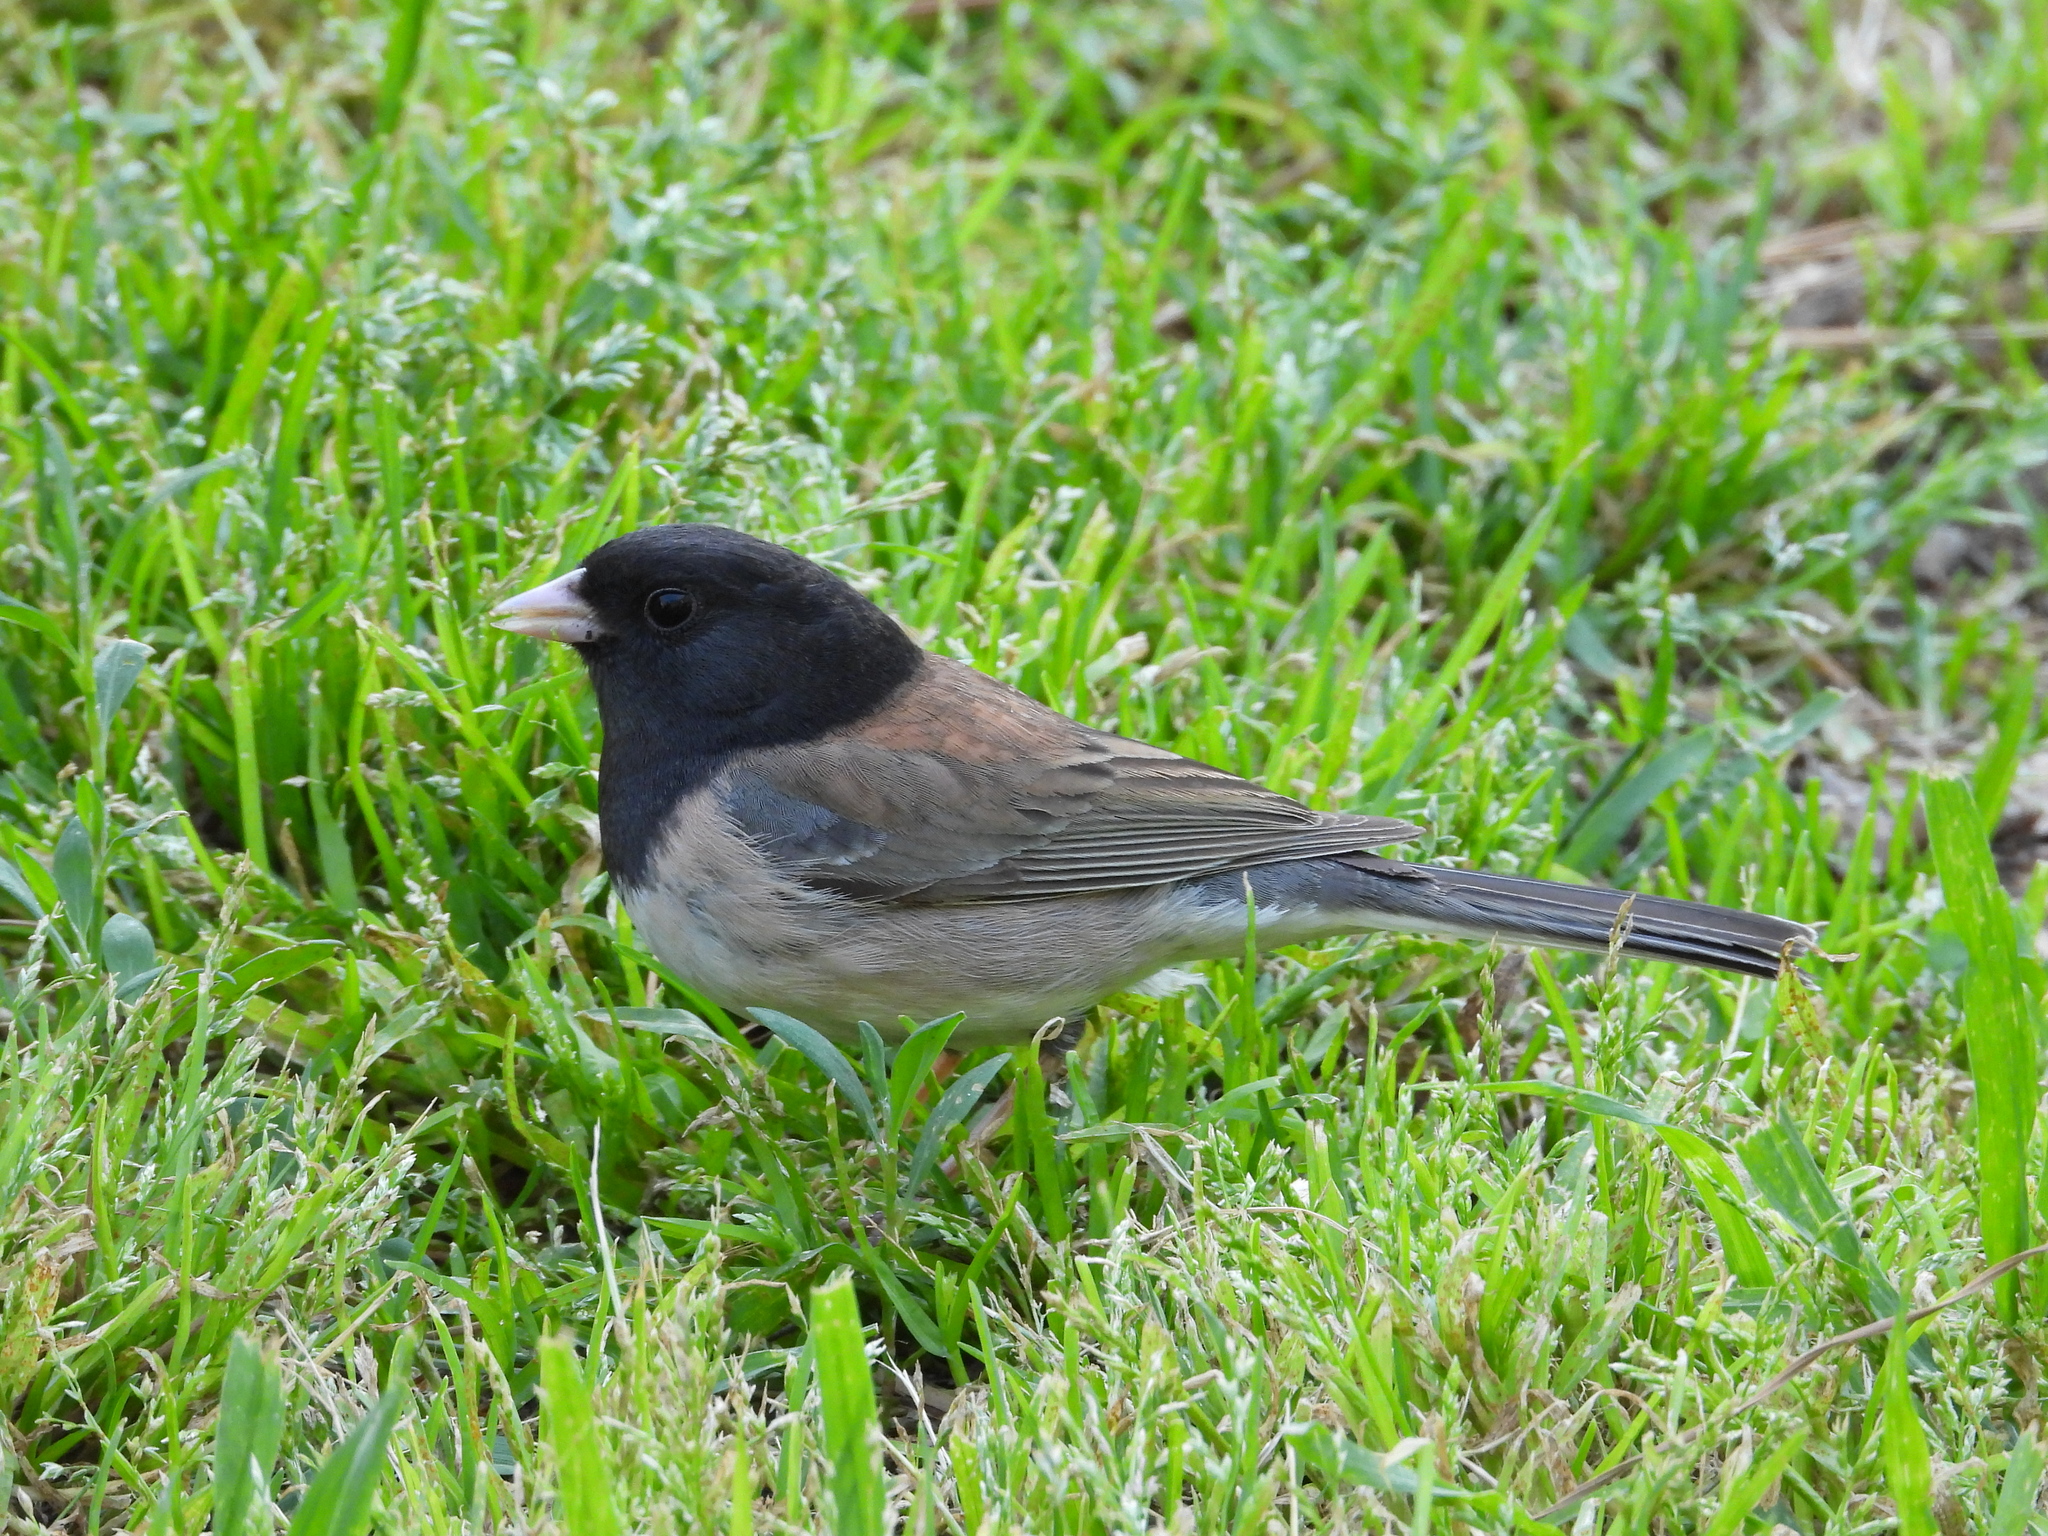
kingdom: Animalia
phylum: Chordata
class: Aves
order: Passeriformes
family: Passerellidae
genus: Junco
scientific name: Junco hyemalis
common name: Dark-eyed junco
